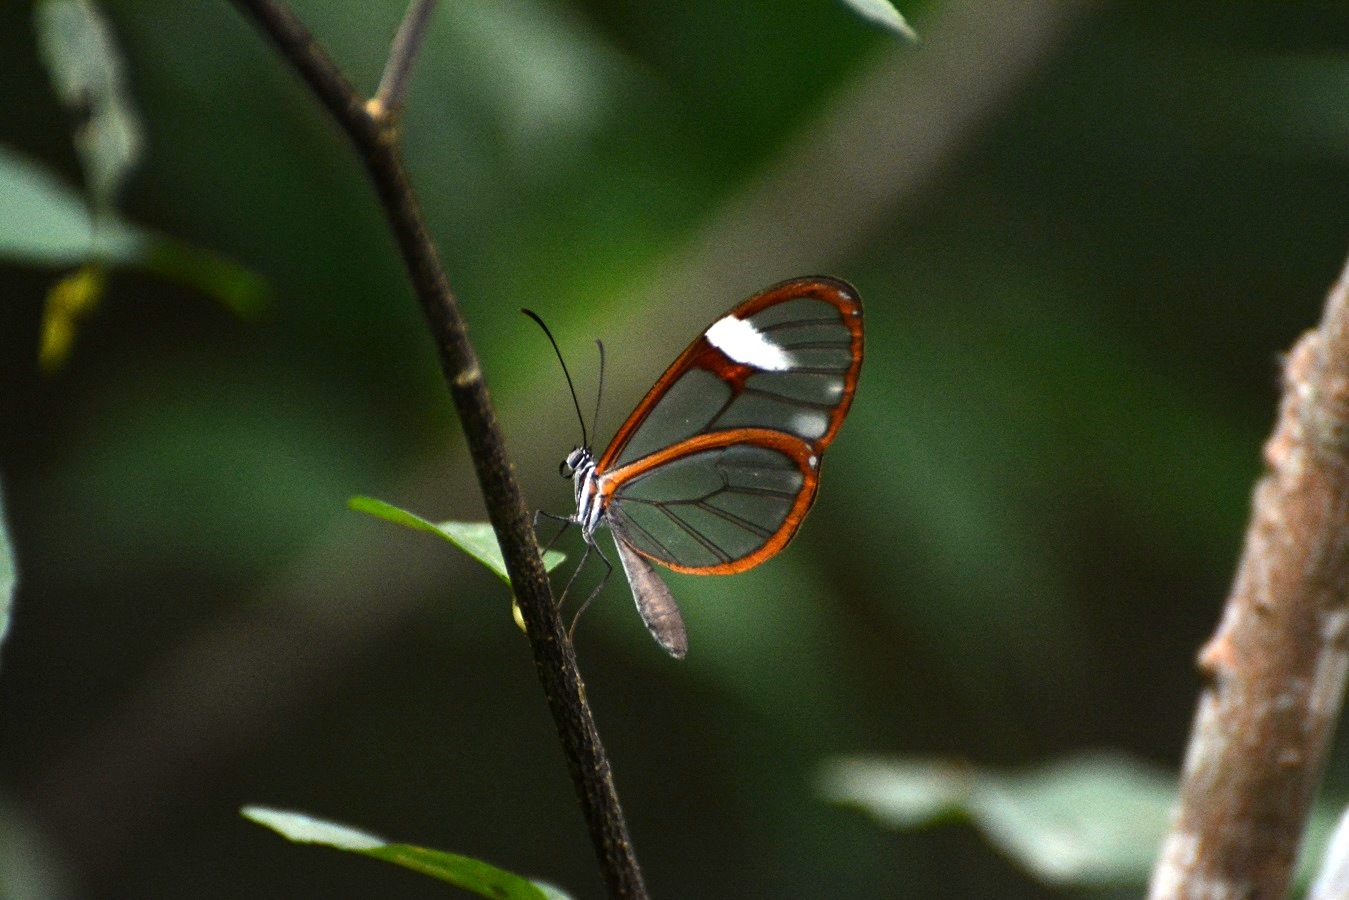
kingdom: Animalia
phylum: Arthropoda
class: Insecta
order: Lepidoptera
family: Nymphalidae
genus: Episcada
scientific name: Episcada salvinia
